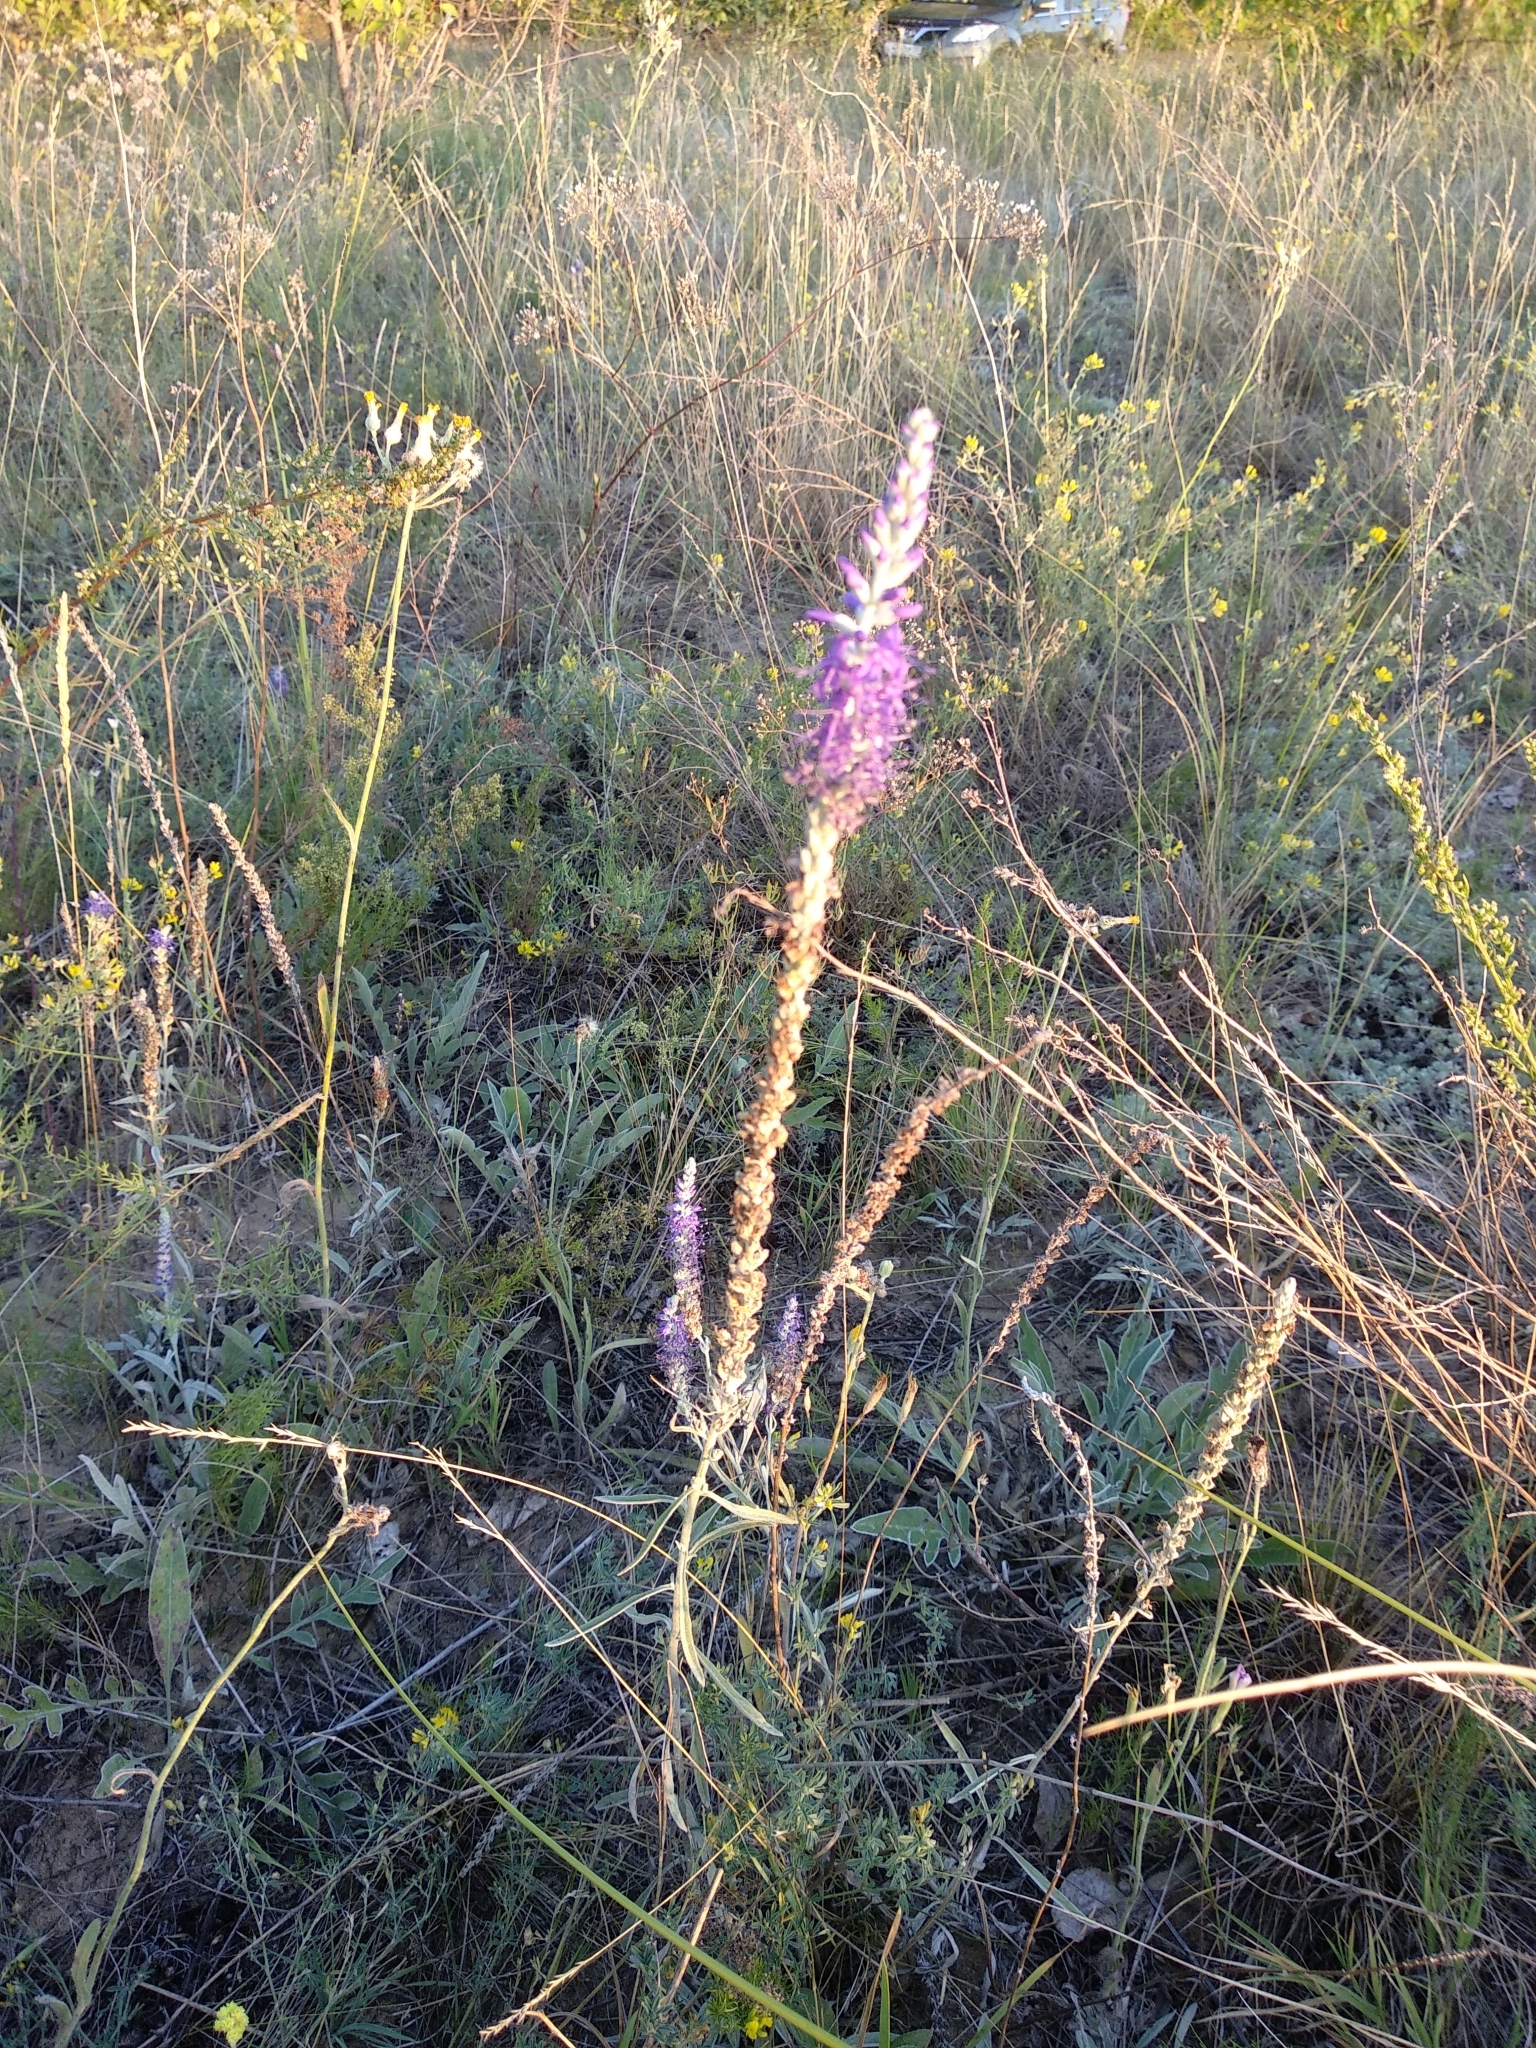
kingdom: Plantae
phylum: Tracheophyta
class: Magnoliopsida
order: Lamiales
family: Plantaginaceae
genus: Veronica
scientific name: Veronica incana
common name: Silver speedwell
